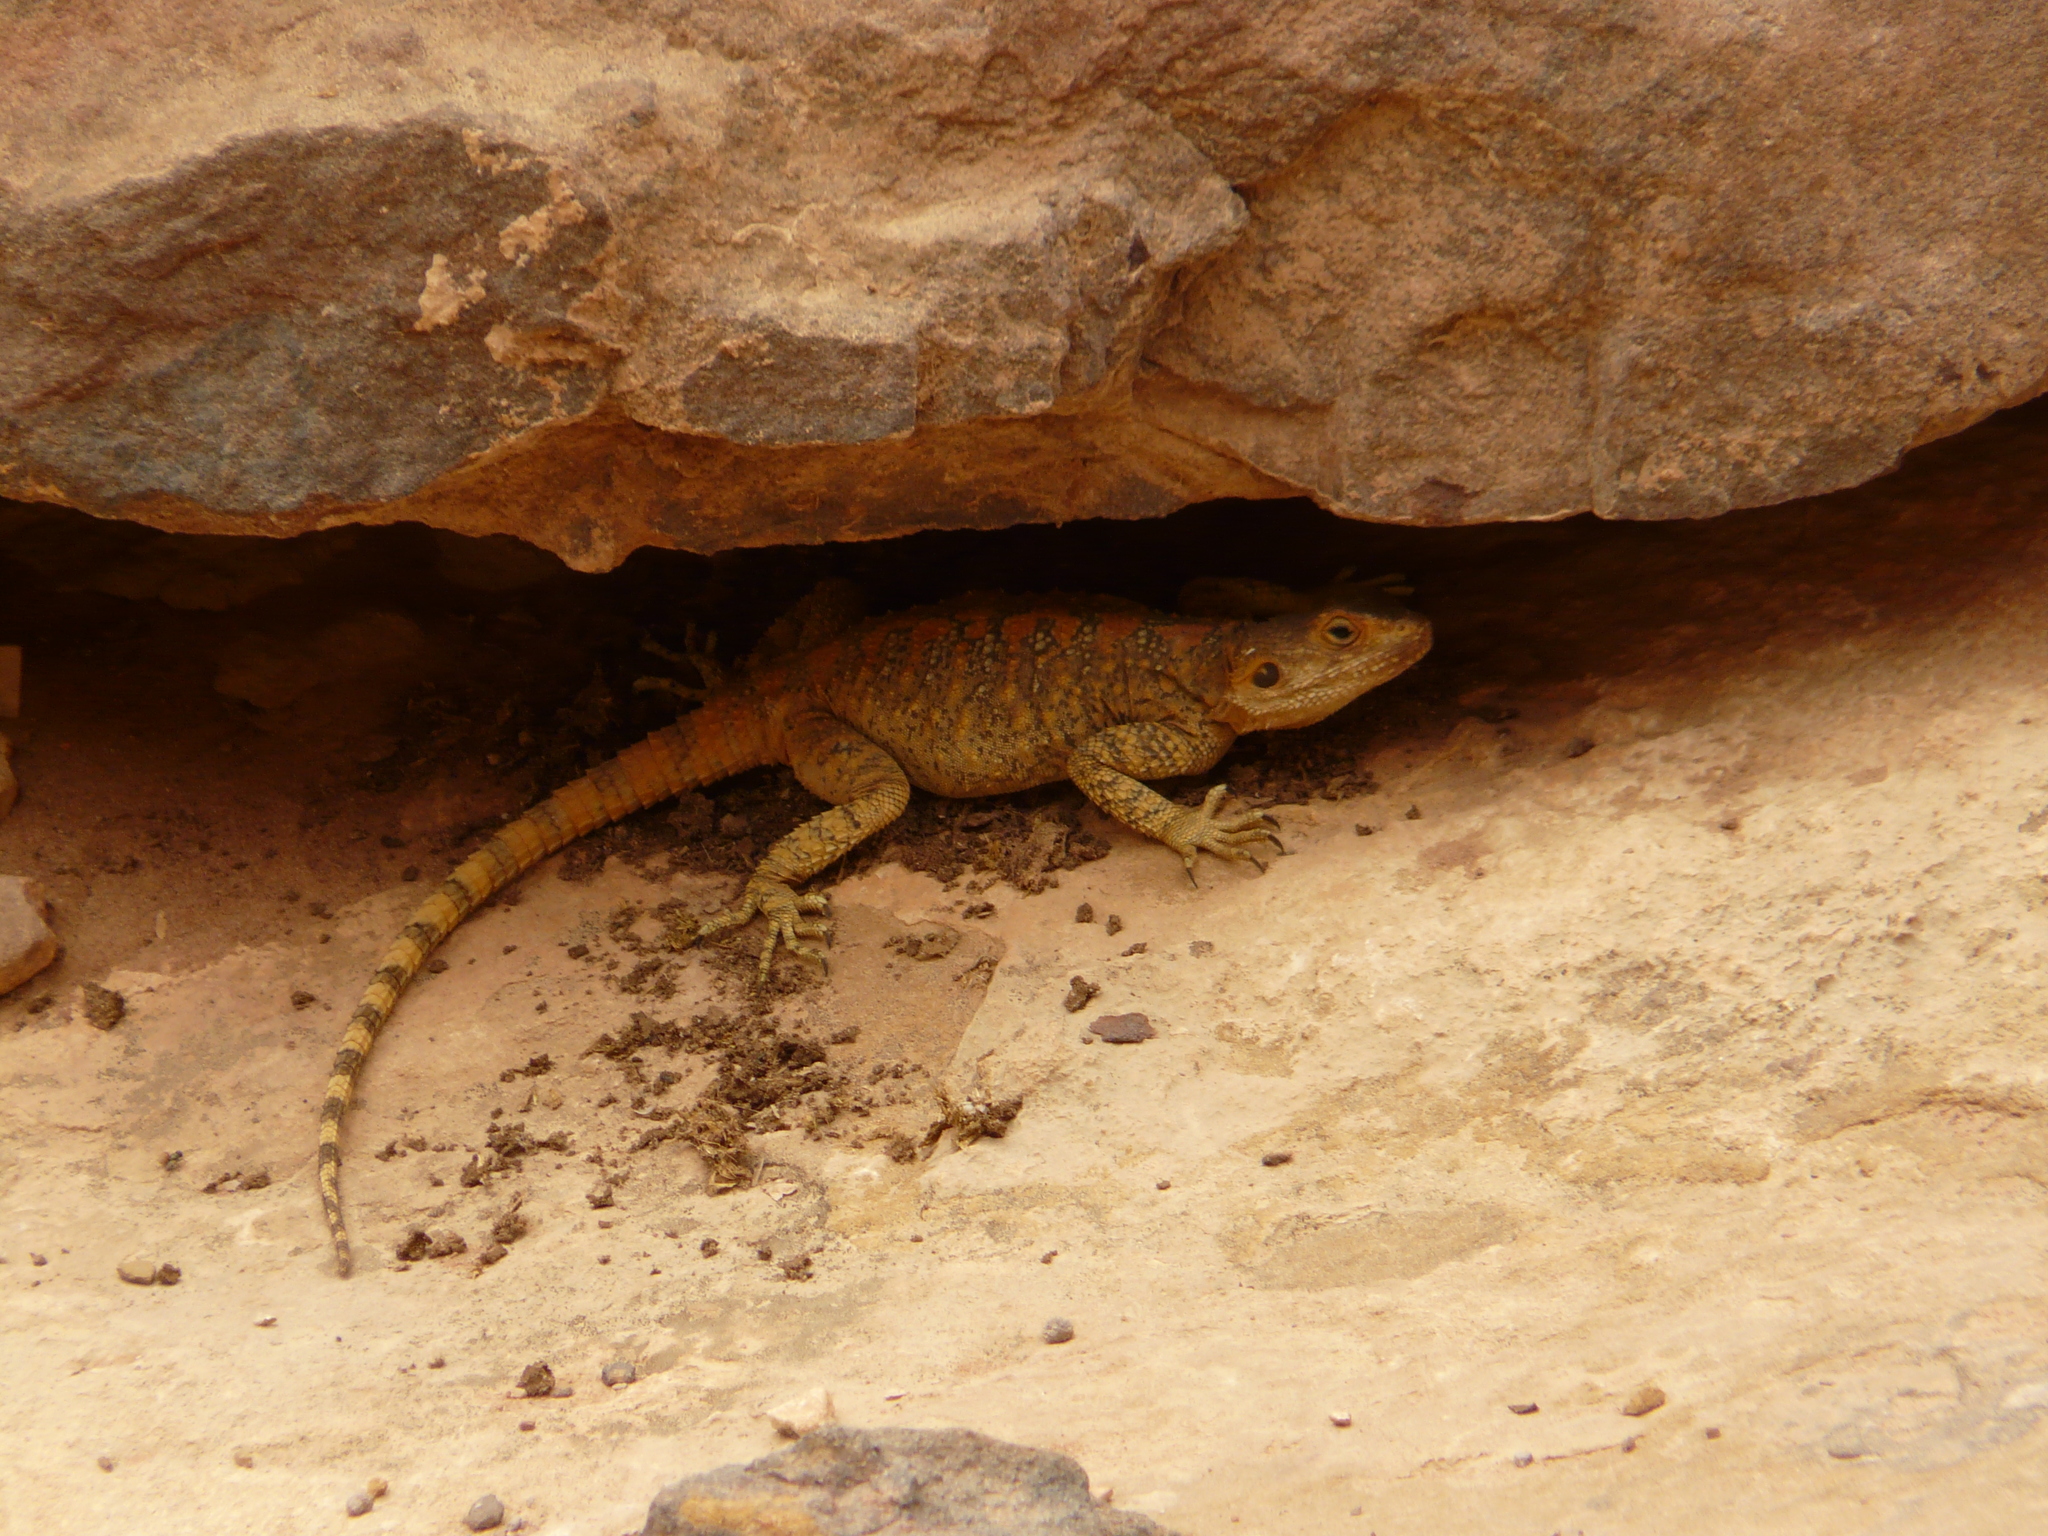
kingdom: Animalia
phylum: Chordata
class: Squamata
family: Agamidae
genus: Laudakia
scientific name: Laudakia vulgaris
